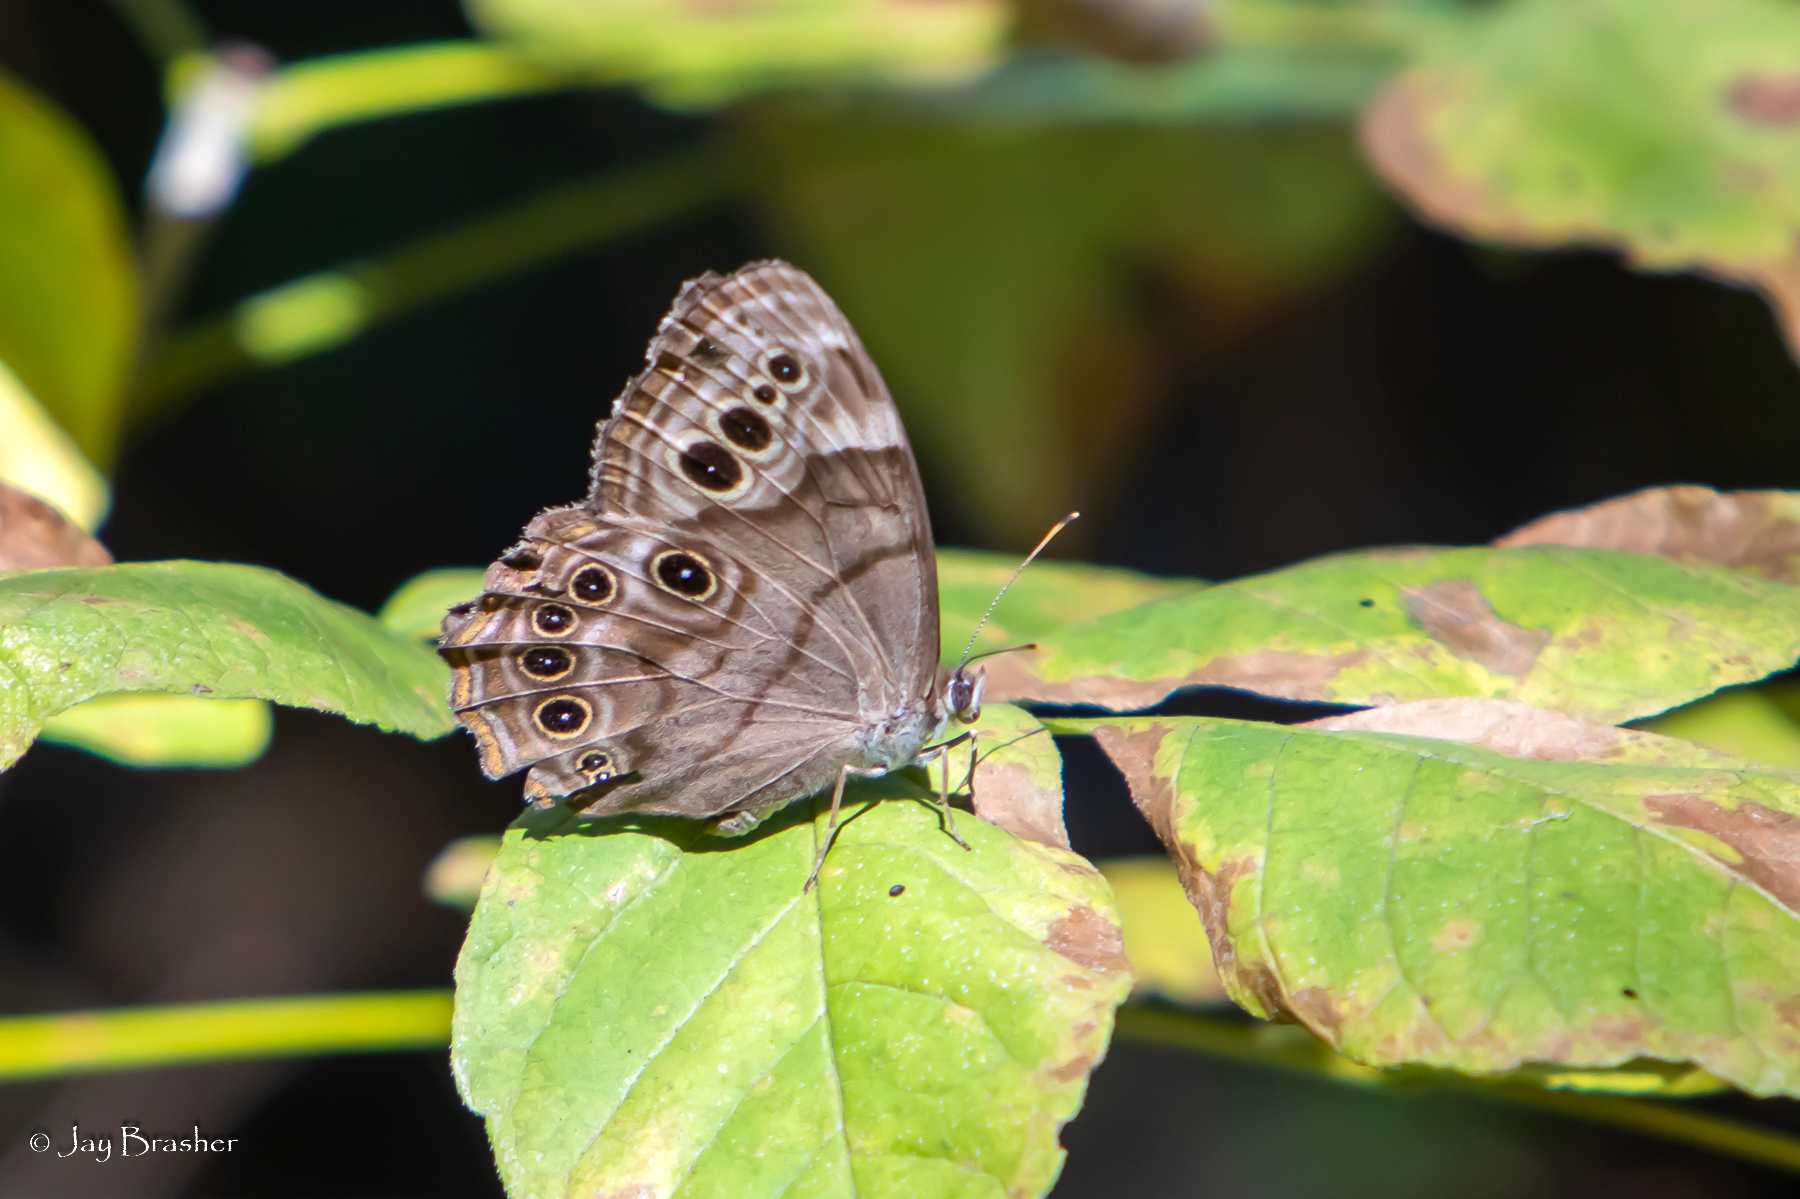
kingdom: Animalia
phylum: Arthropoda
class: Insecta
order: Lepidoptera
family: Nymphalidae
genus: Lethe
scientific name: Lethe anthedon
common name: Northern pearly-eye
